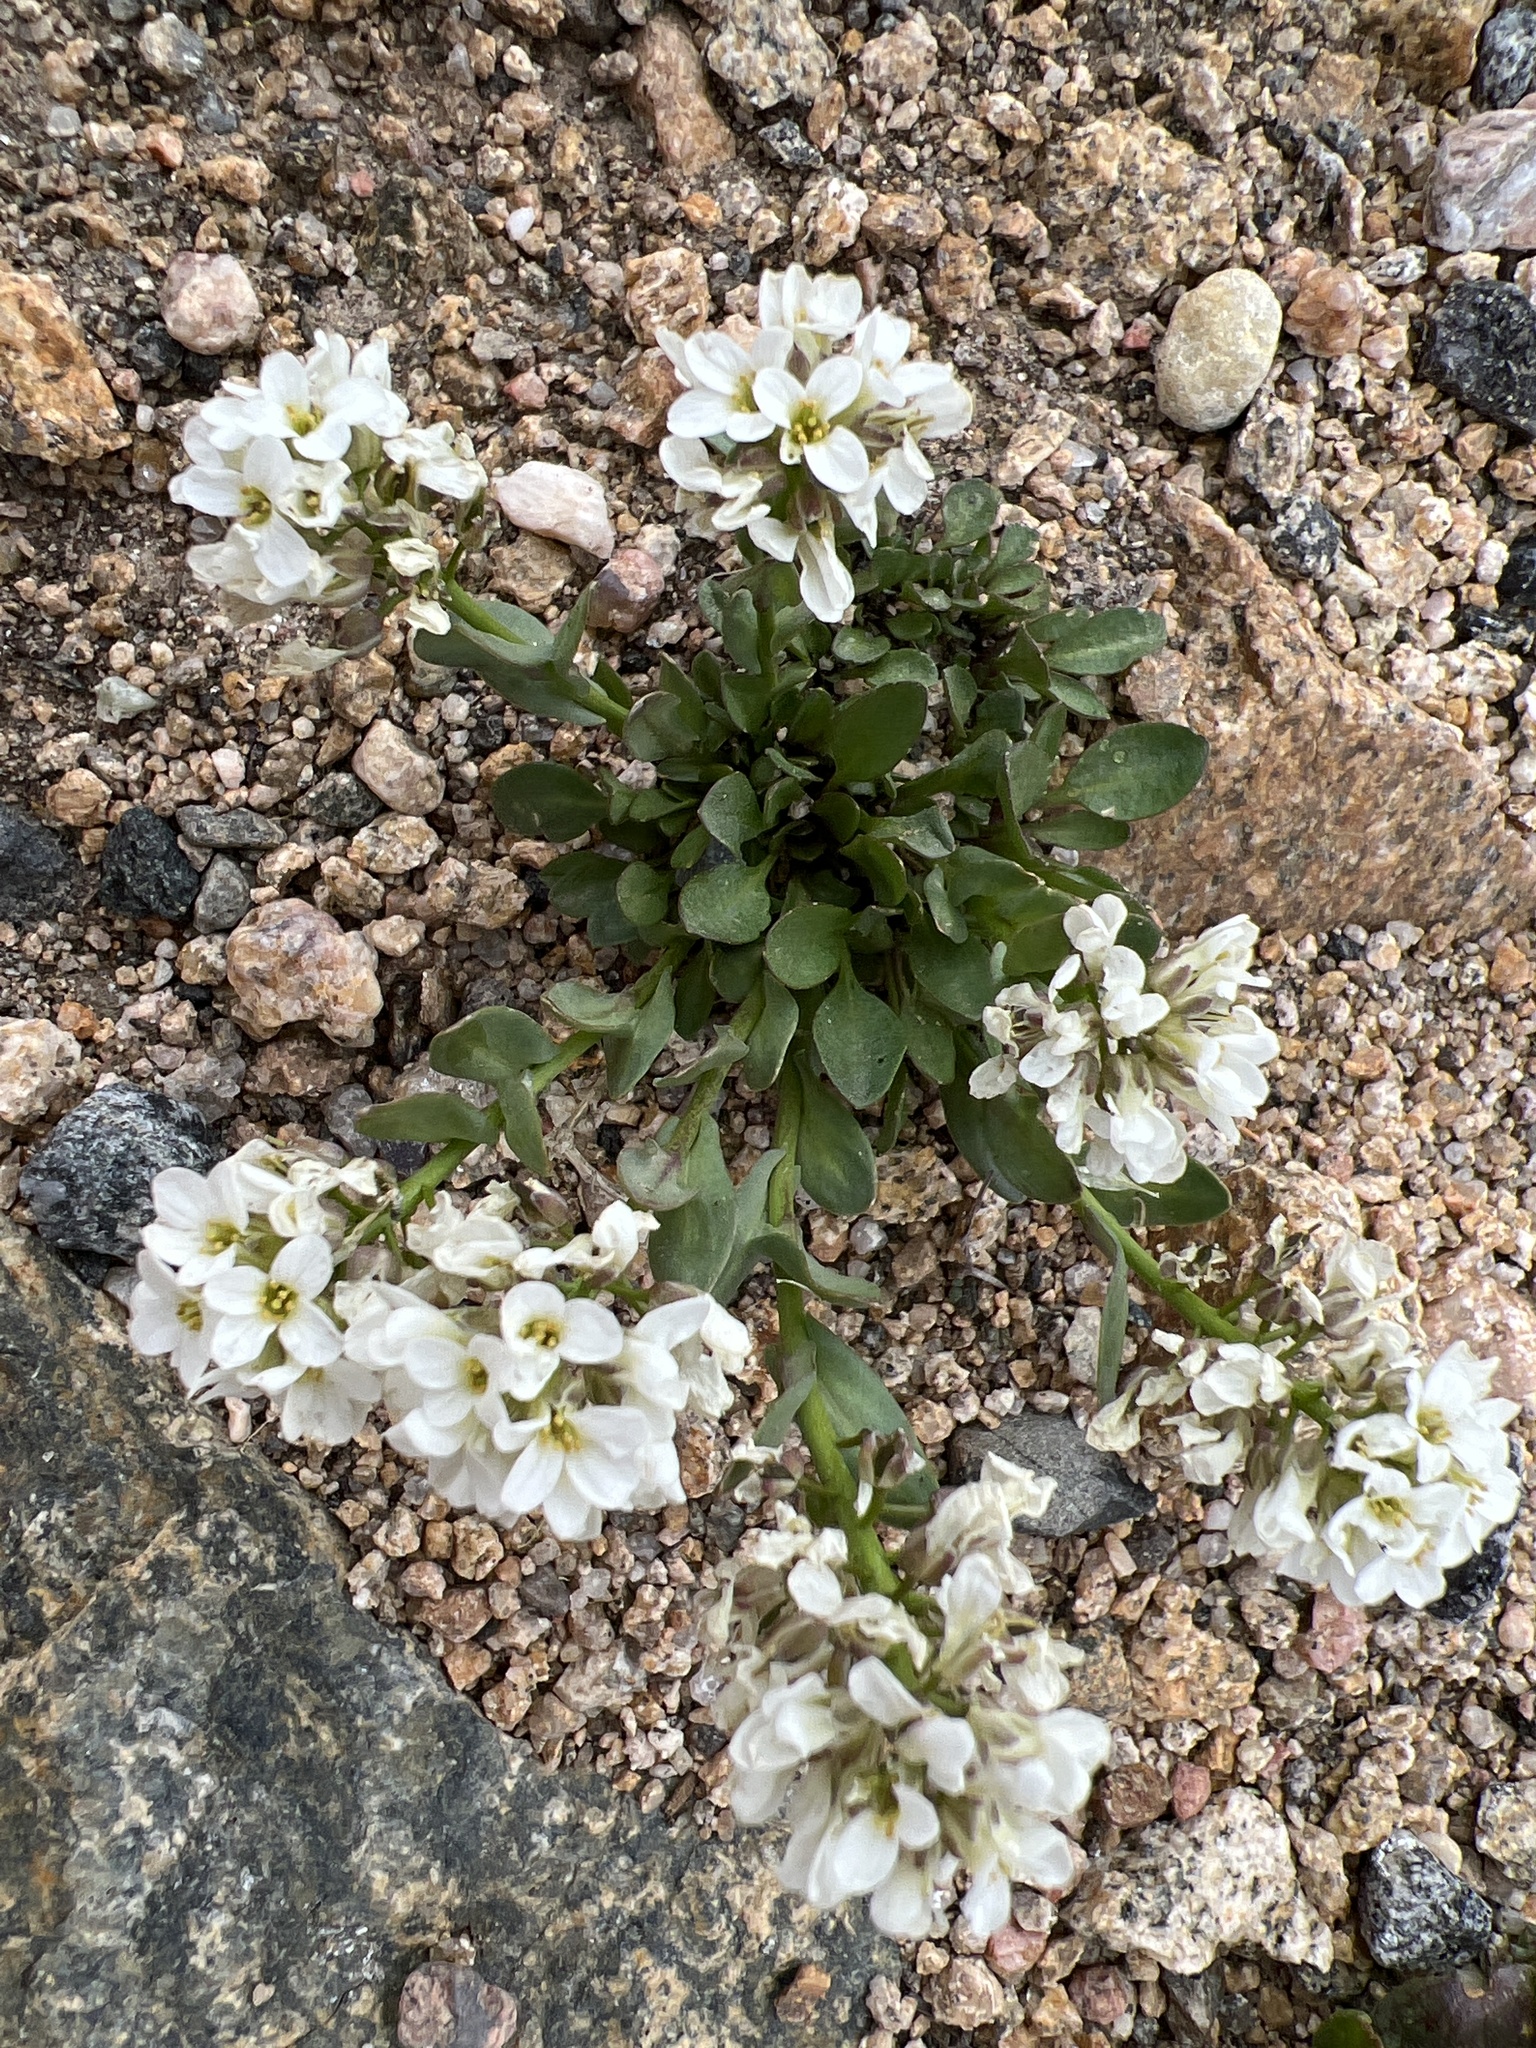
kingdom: Plantae
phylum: Tracheophyta
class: Magnoliopsida
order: Brassicales
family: Brassicaceae
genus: Noccaea
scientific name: Noccaea fendleri
